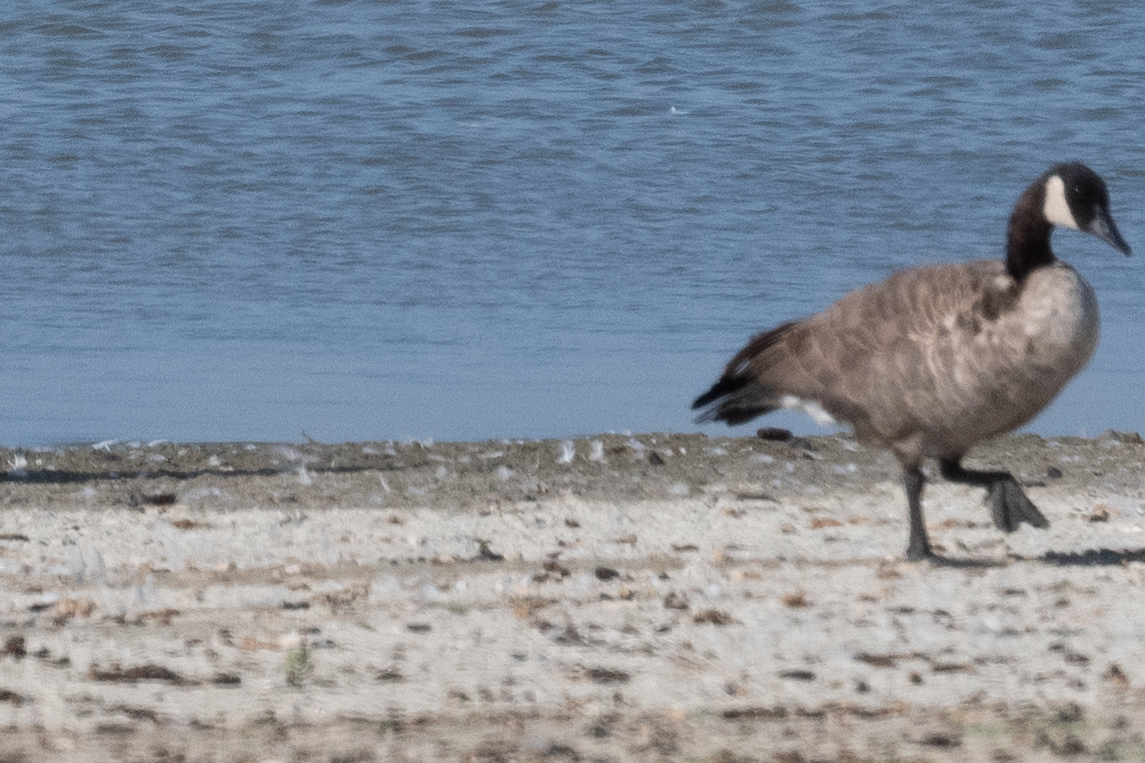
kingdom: Animalia
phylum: Chordata
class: Aves
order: Anseriformes
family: Anatidae
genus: Branta
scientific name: Branta canadensis
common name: Canada goose
